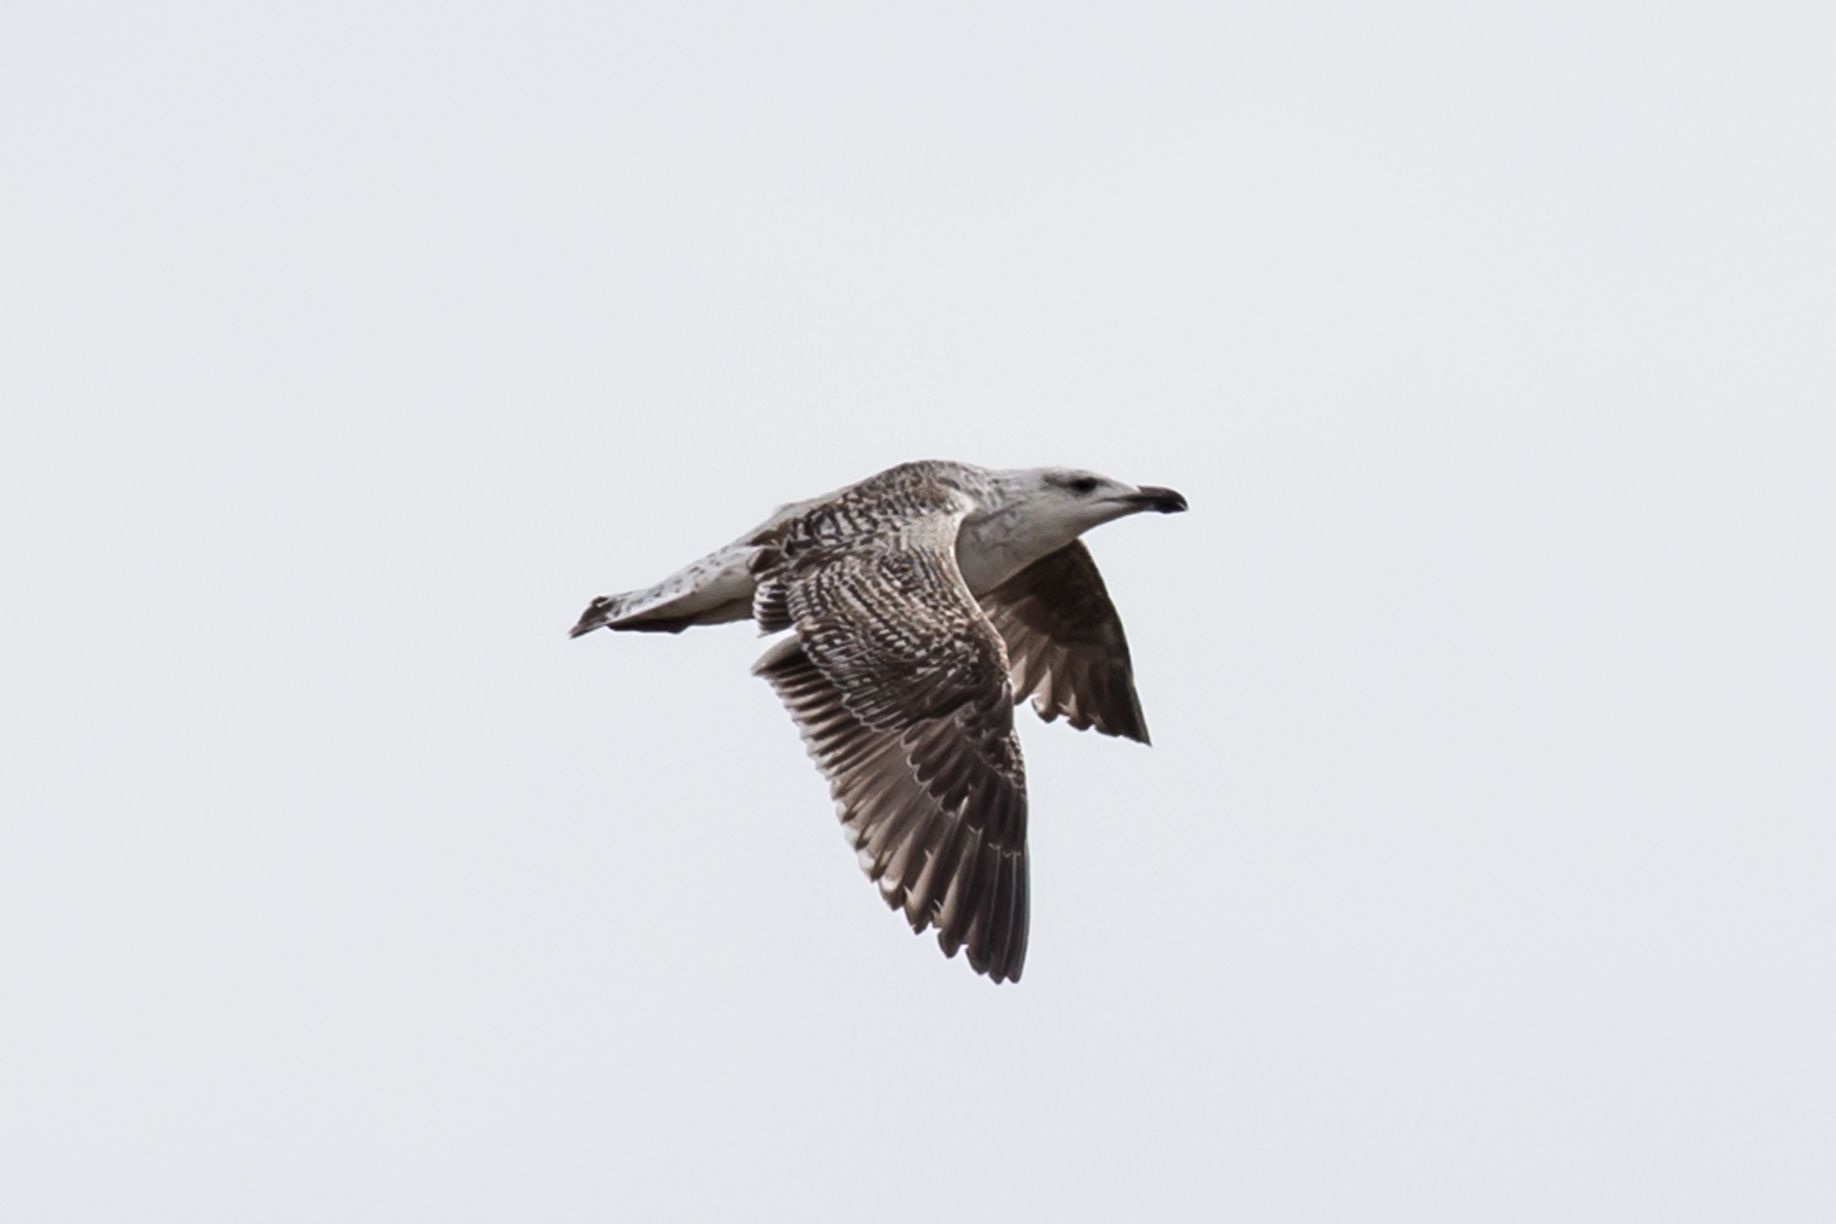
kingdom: Animalia
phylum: Chordata
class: Aves
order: Charadriiformes
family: Laridae
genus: Larus
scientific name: Larus marinus
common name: Great black-backed gull
